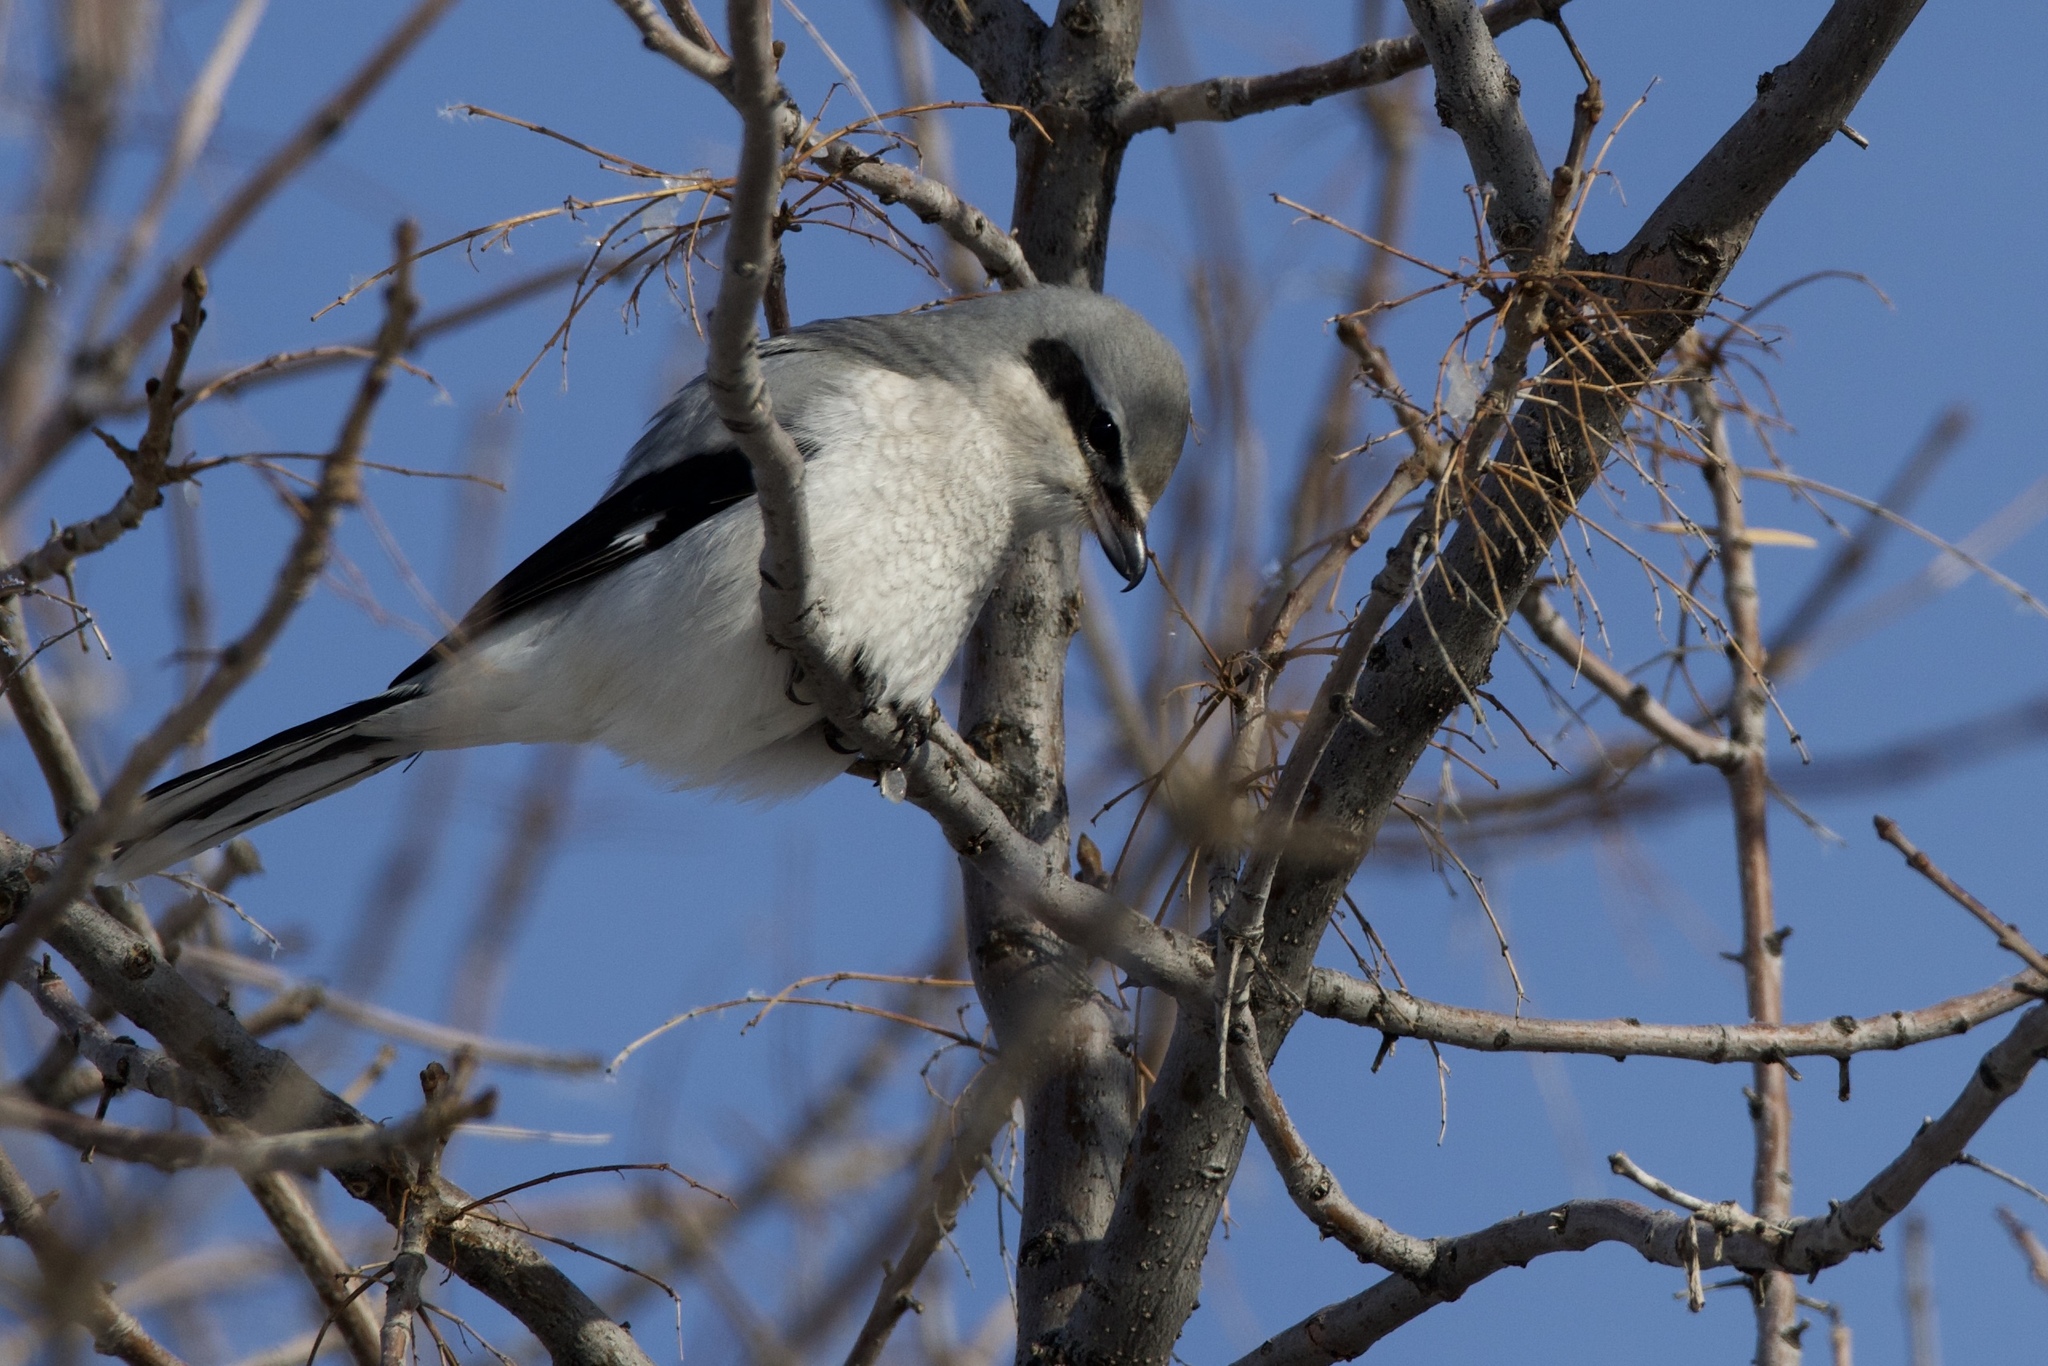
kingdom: Animalia
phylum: Chordata
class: Aves
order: Passeriformes
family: Laniidae
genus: Lanius
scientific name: Lanius borealis
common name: Northern shrike
